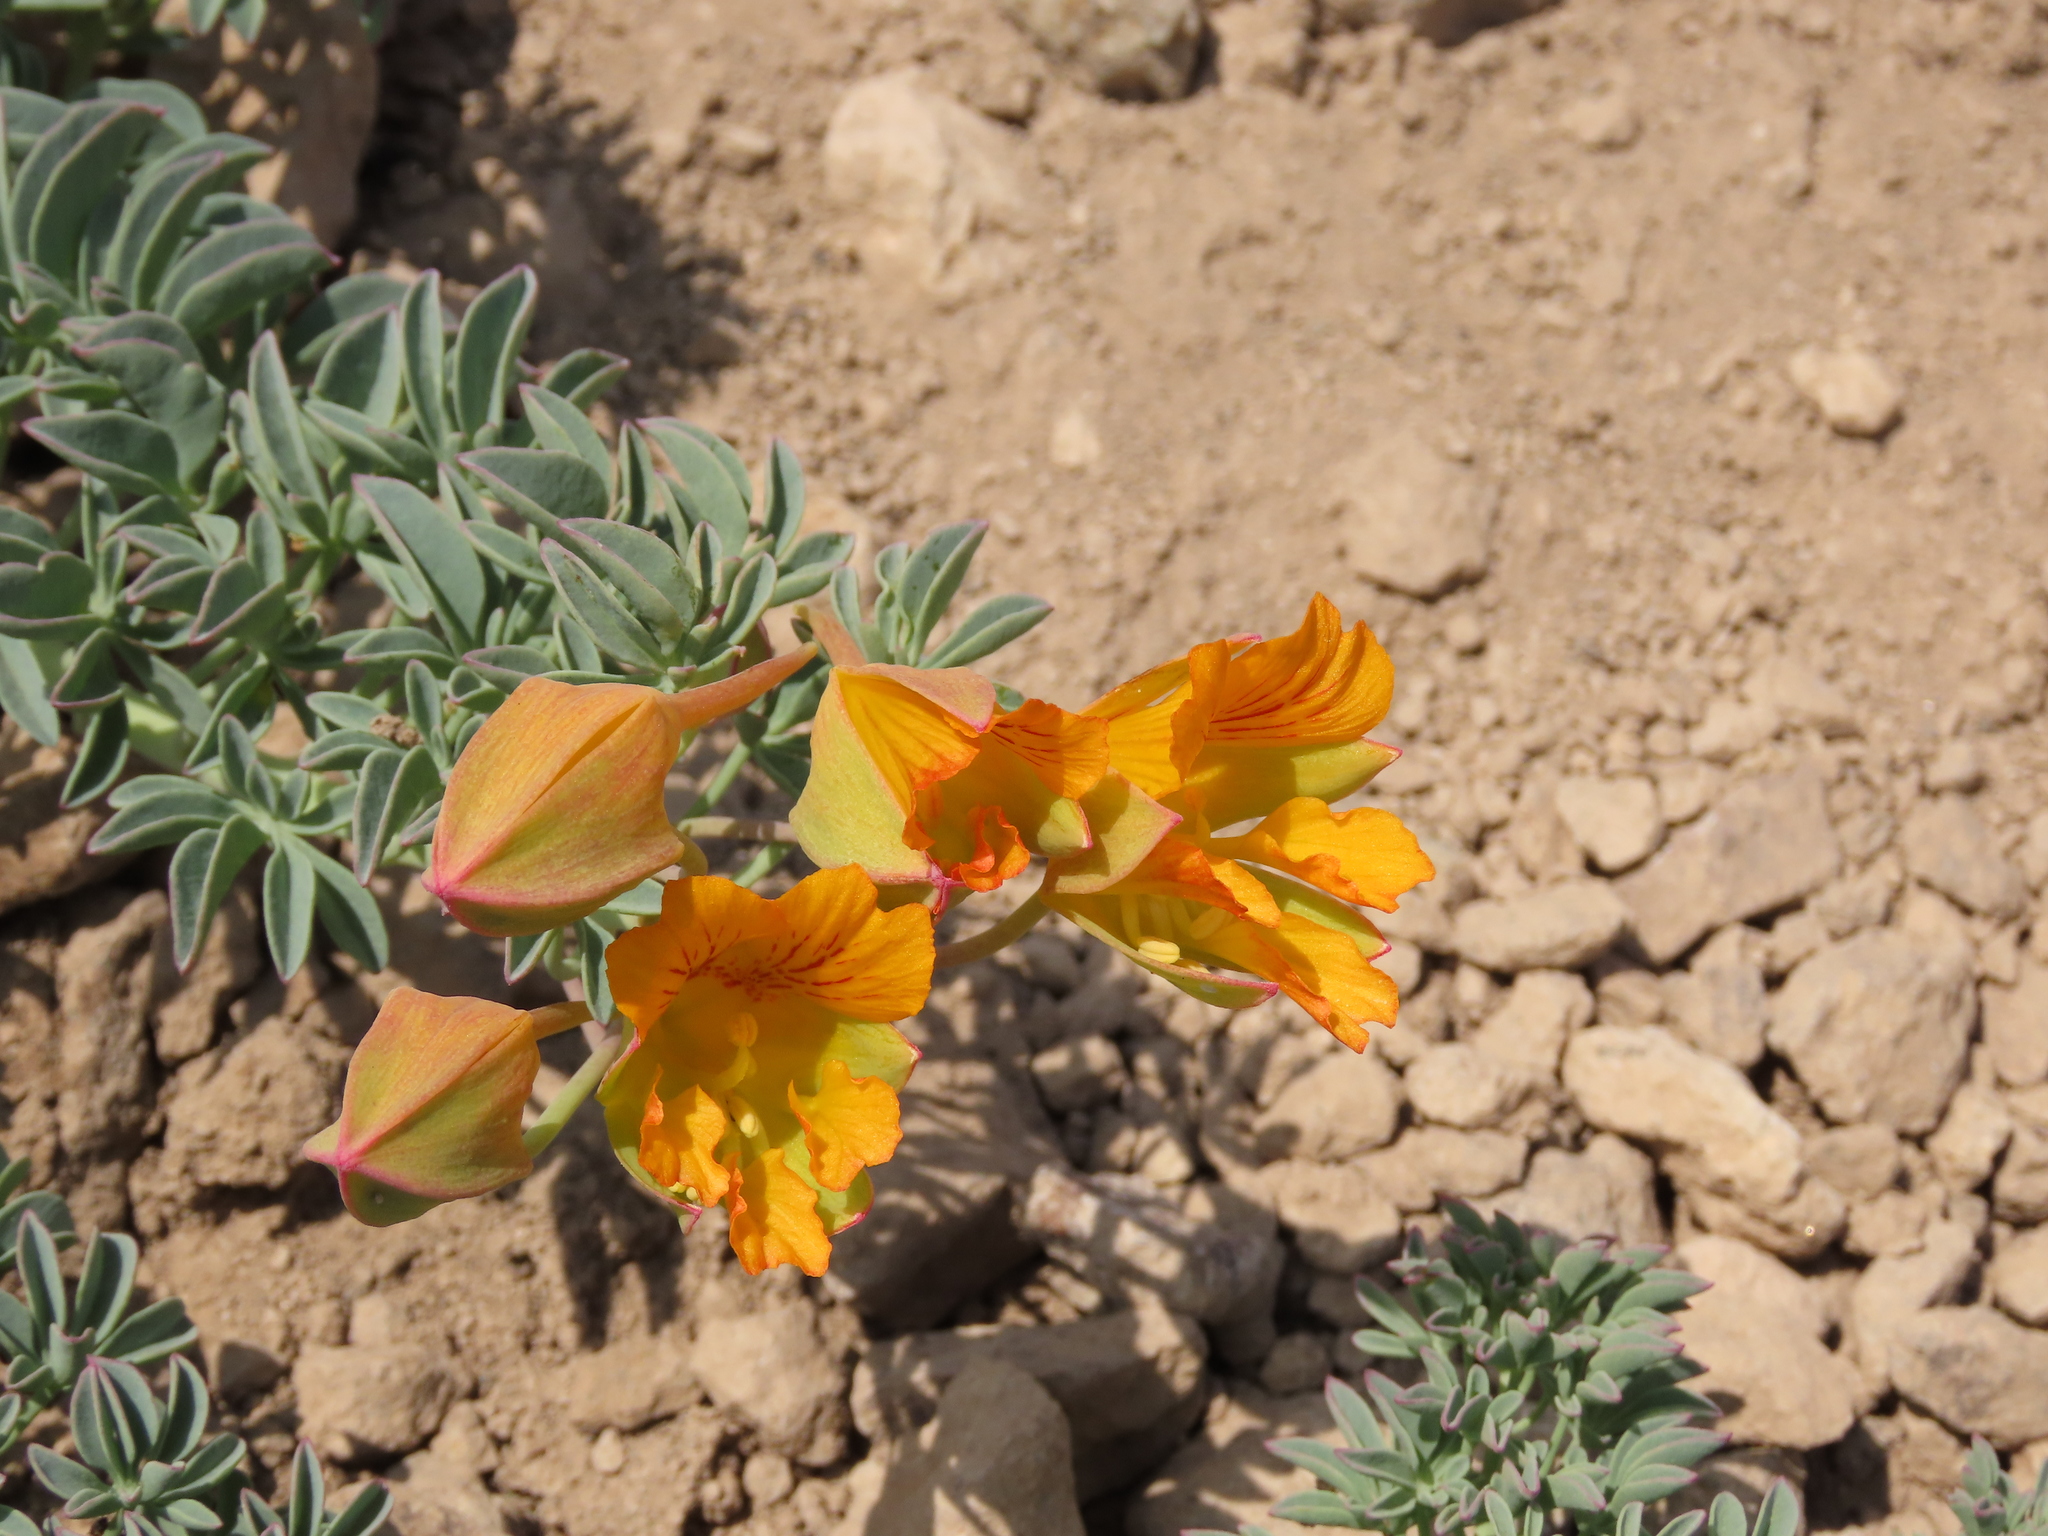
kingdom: Plantae
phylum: Tracheophyta
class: Magnoliopsida
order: Brassicales
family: Tropaeolaceae
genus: Tropaeolum
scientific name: Tropaeolum polyphyllum
